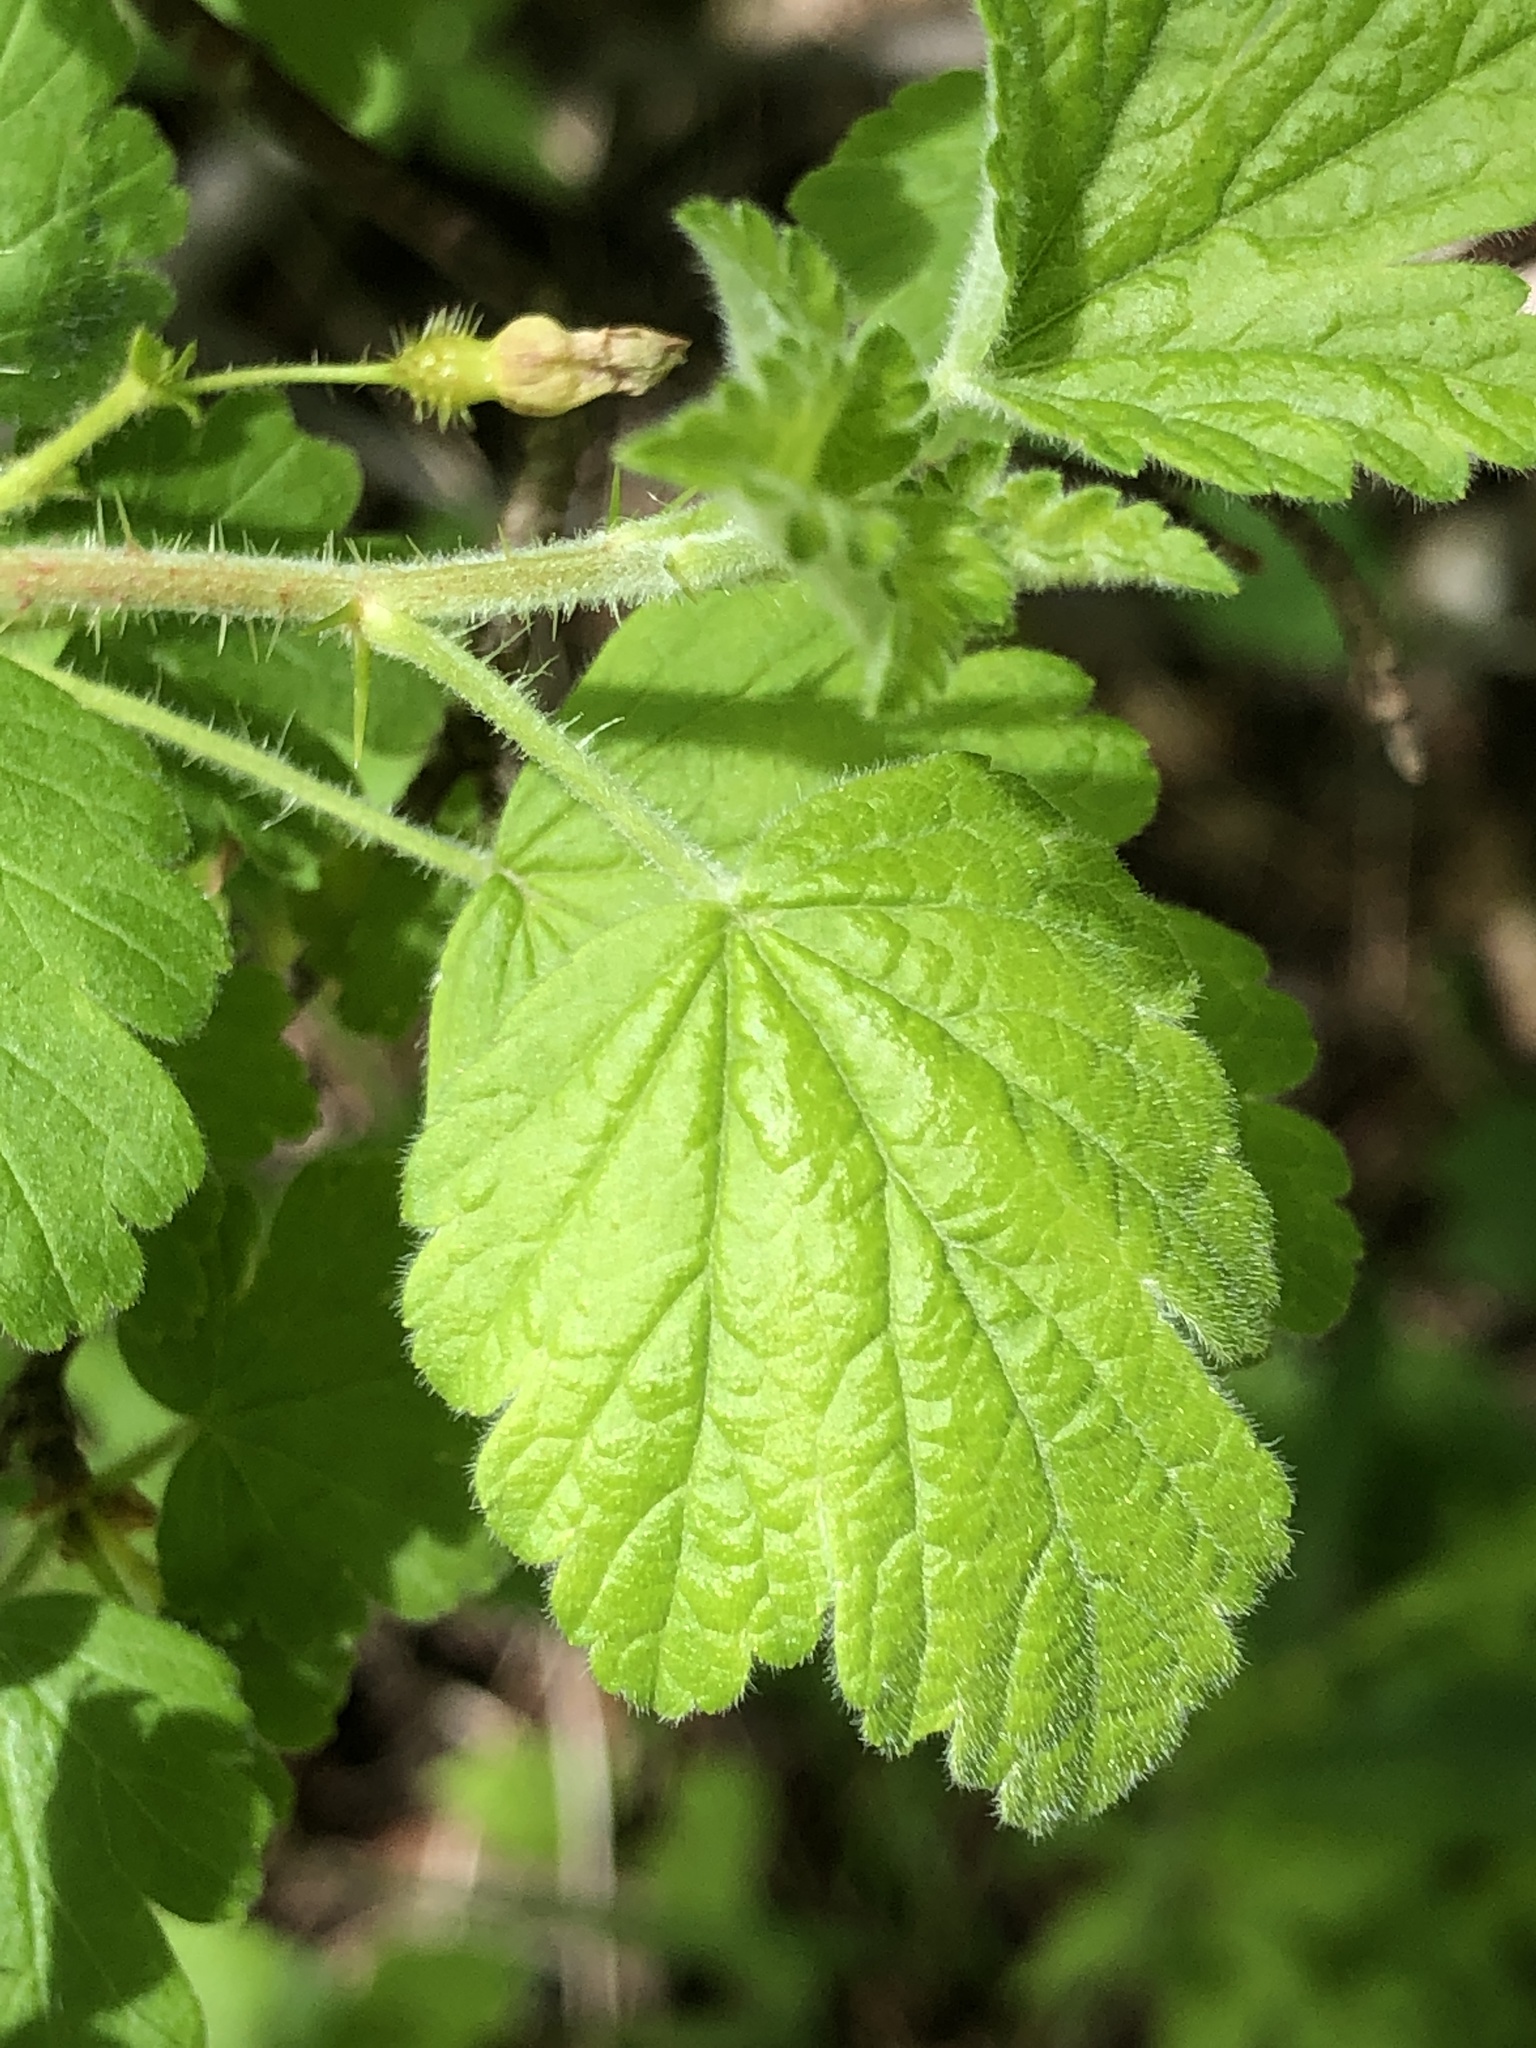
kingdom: Plantae
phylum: Tracheophyta
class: Magnoliopsida
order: Saxifragales
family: Grossulariaceae
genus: Ribes
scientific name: Ribes cynosbati
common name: American gooseberry
